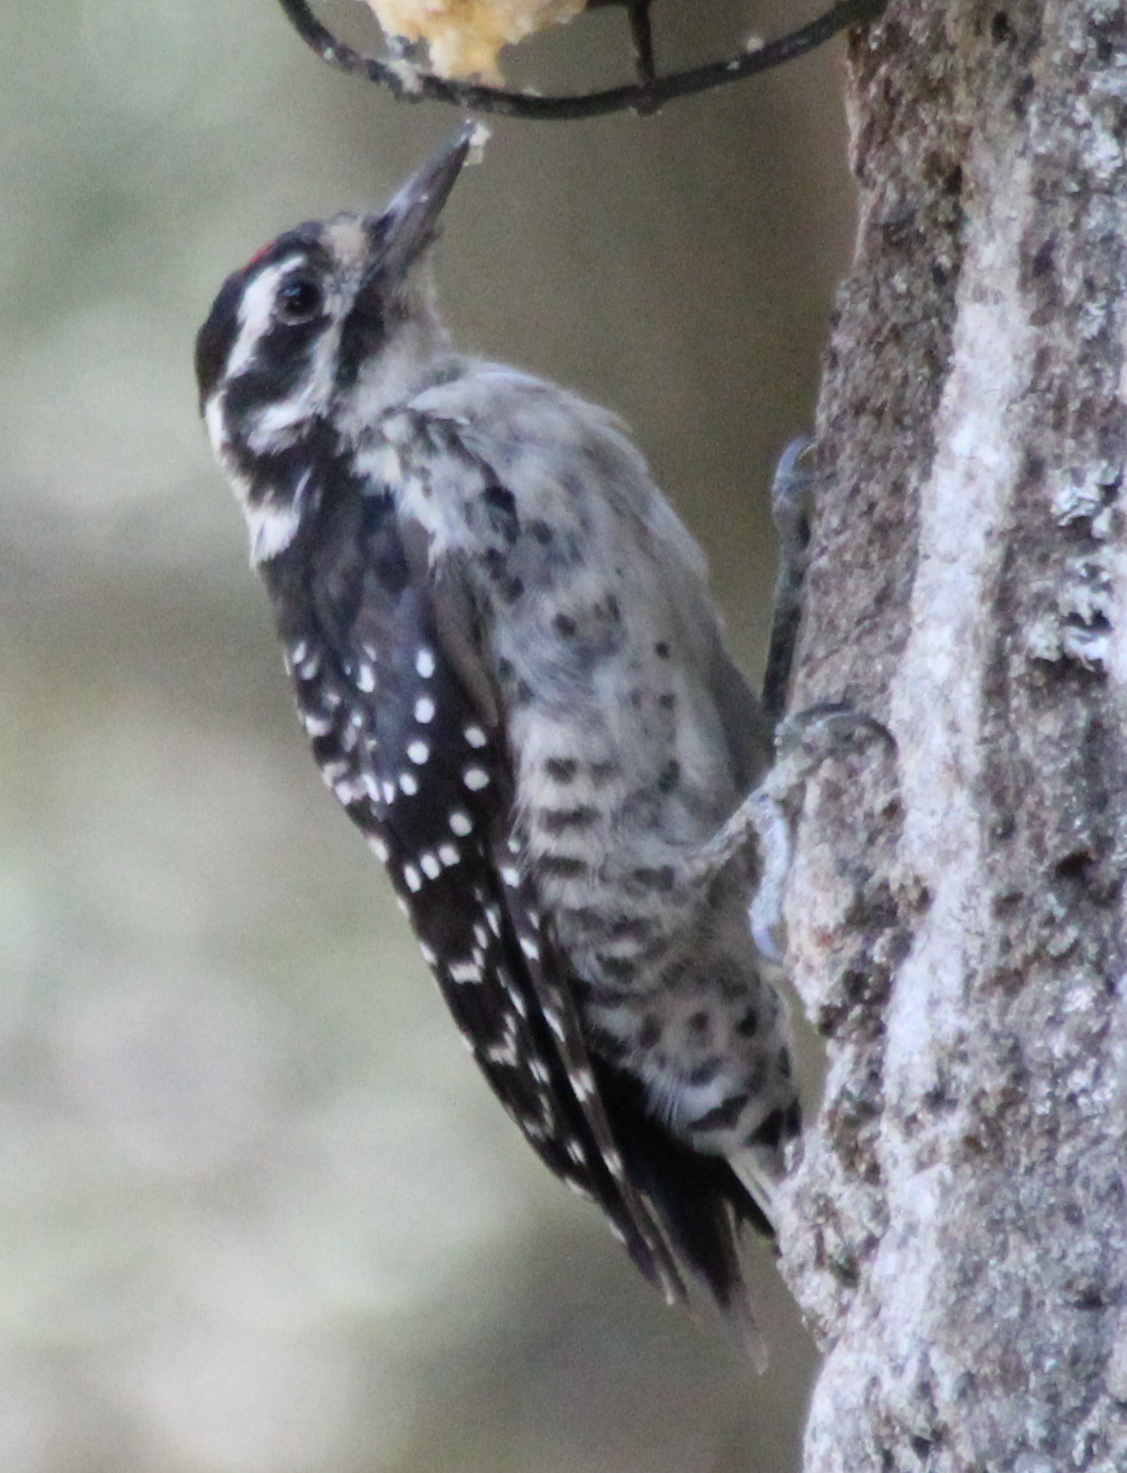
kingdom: Animalia
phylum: Chordata
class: Aves
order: Piciformes
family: Picidae
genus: Dryobates
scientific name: Dryobates nuttallii
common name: Nuttall's woodpecker
